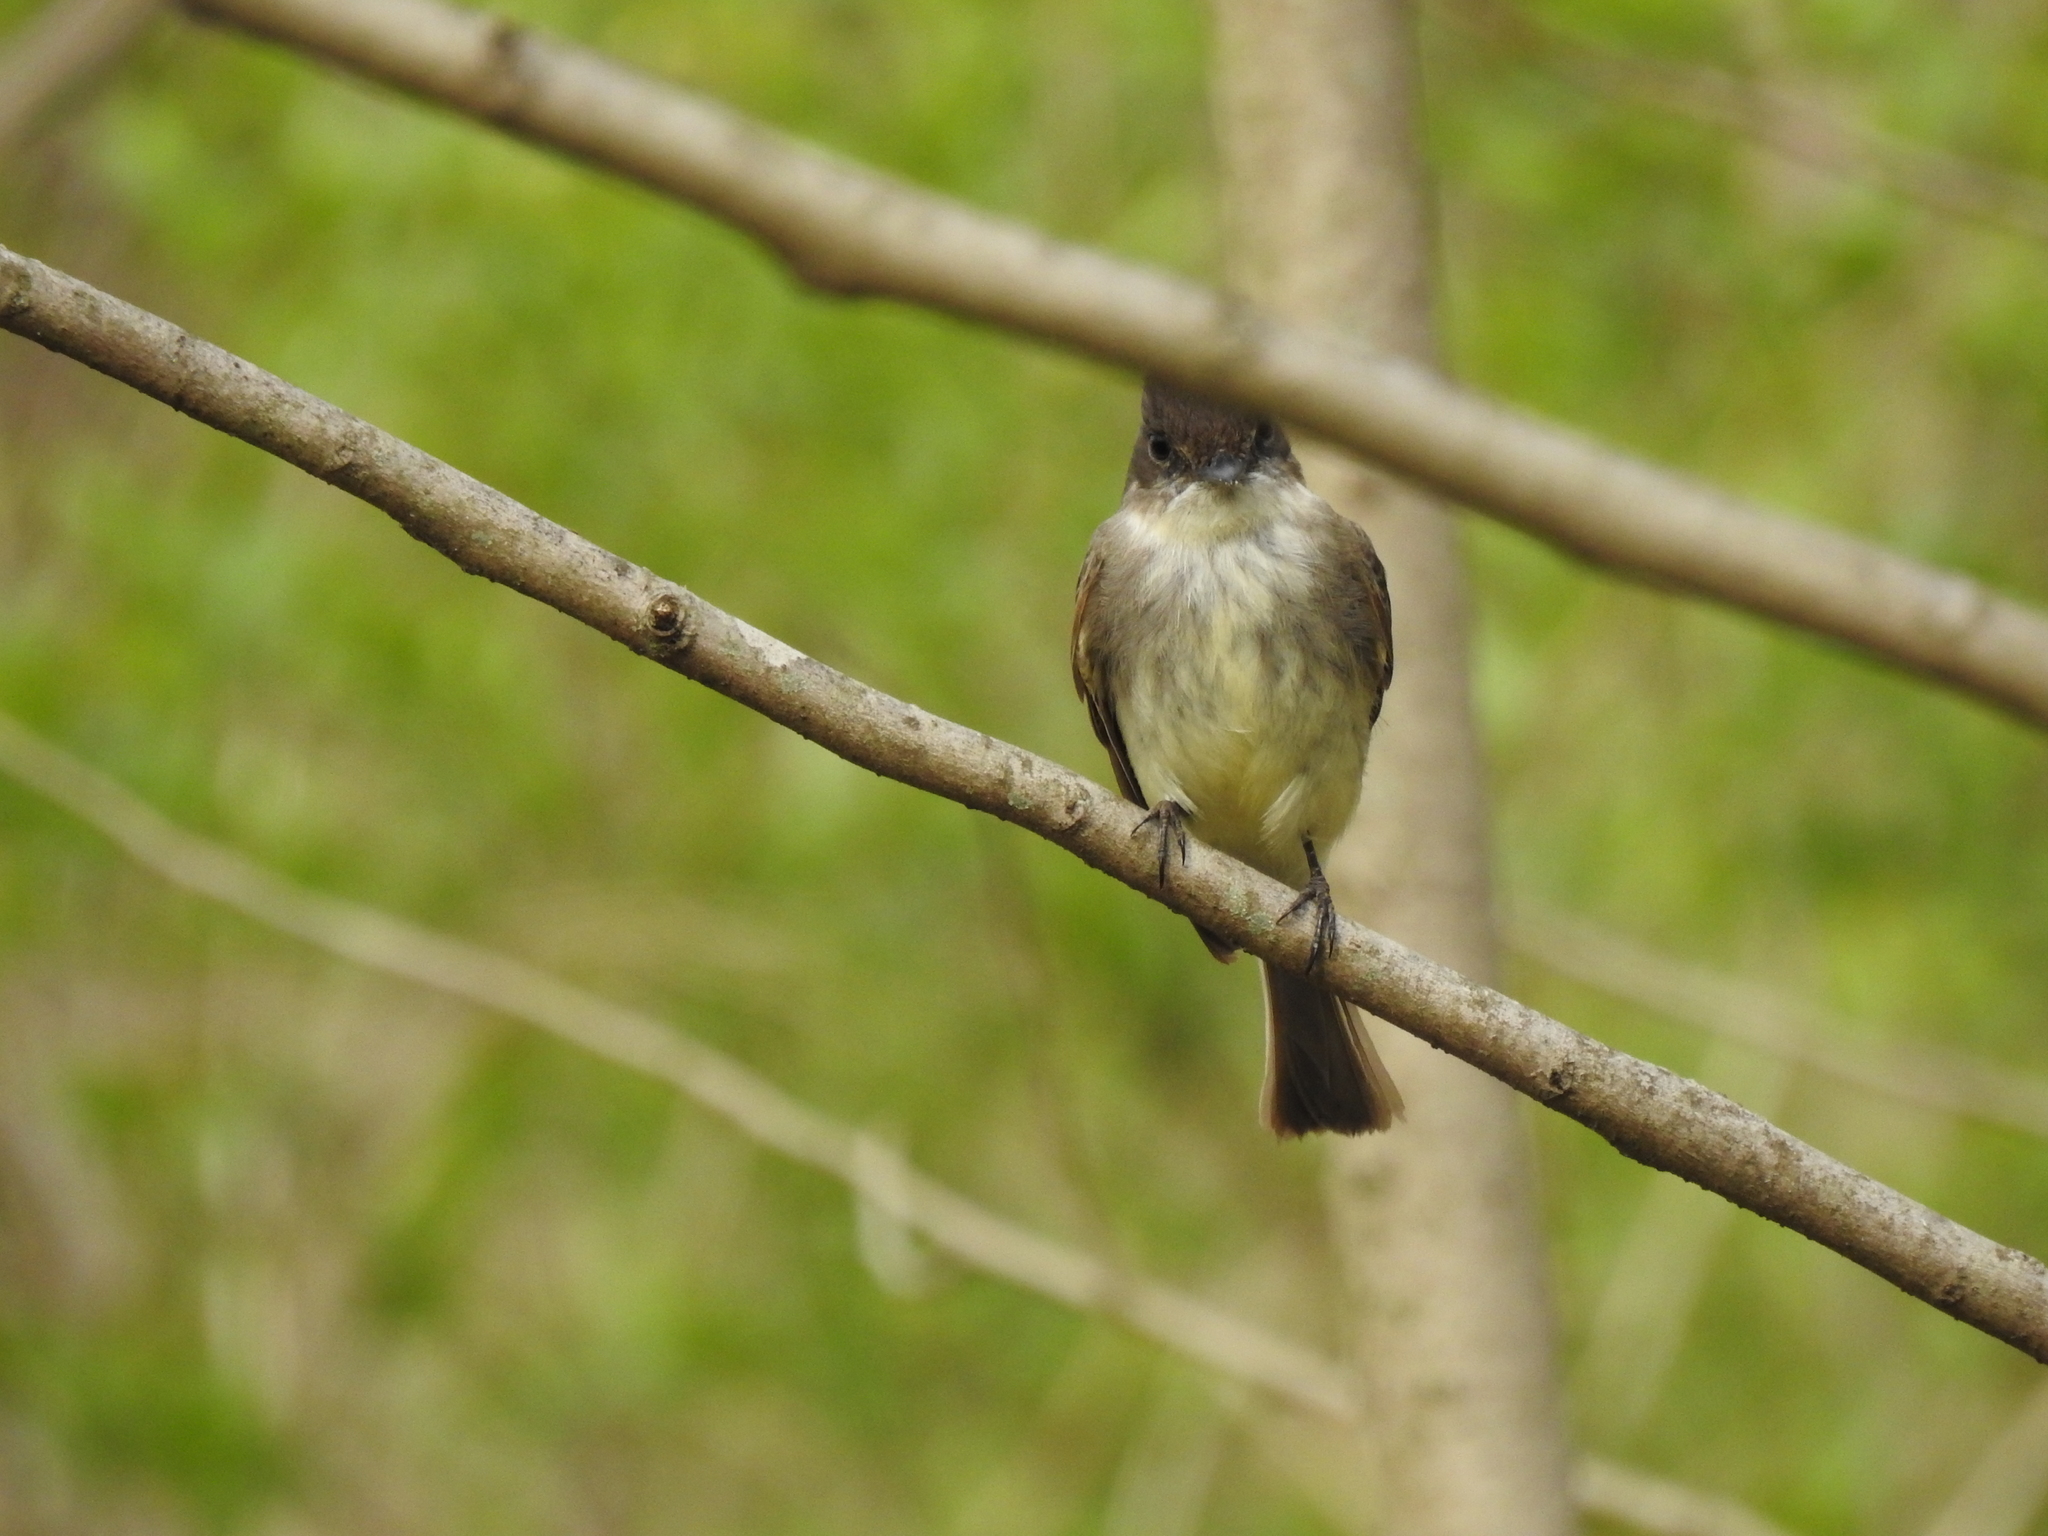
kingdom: Animalia
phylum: Chordata
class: Aves
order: Passeriformes
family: Tyrannidae
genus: Sayornis
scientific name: Sayornis phoebe
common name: Eastern phoebe
